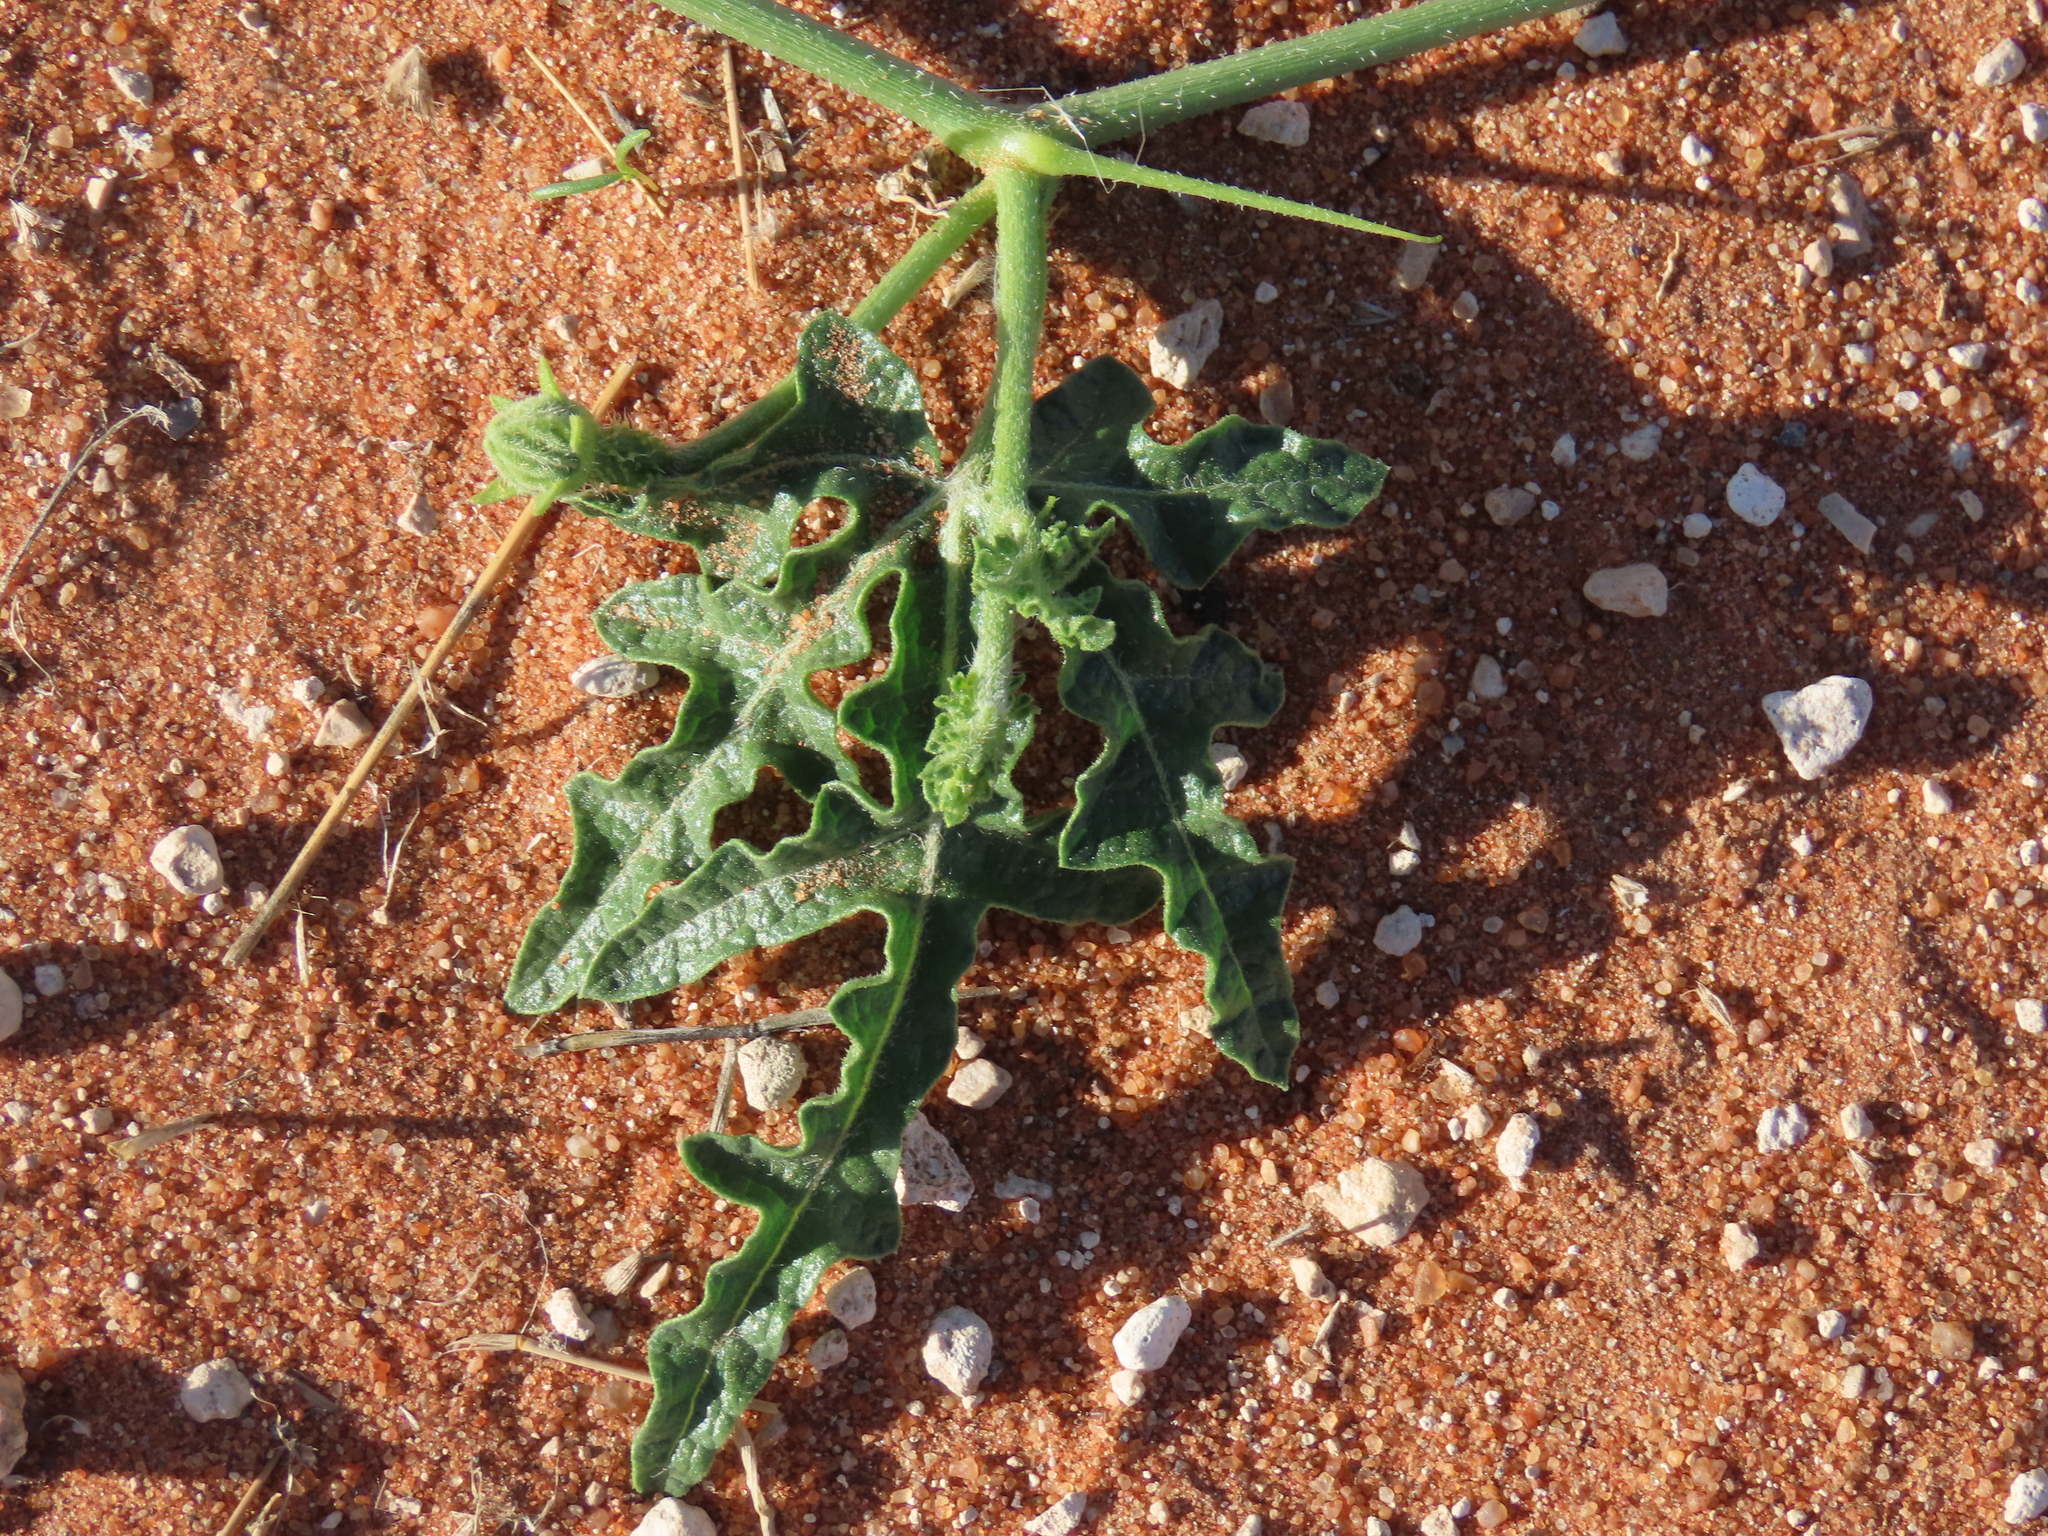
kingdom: Plantae
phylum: Tracheophyta
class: Magnoliopsida
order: Cucurbitales
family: Cucurbitaceae
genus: Citrullus
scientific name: Citrullus naudinianus
